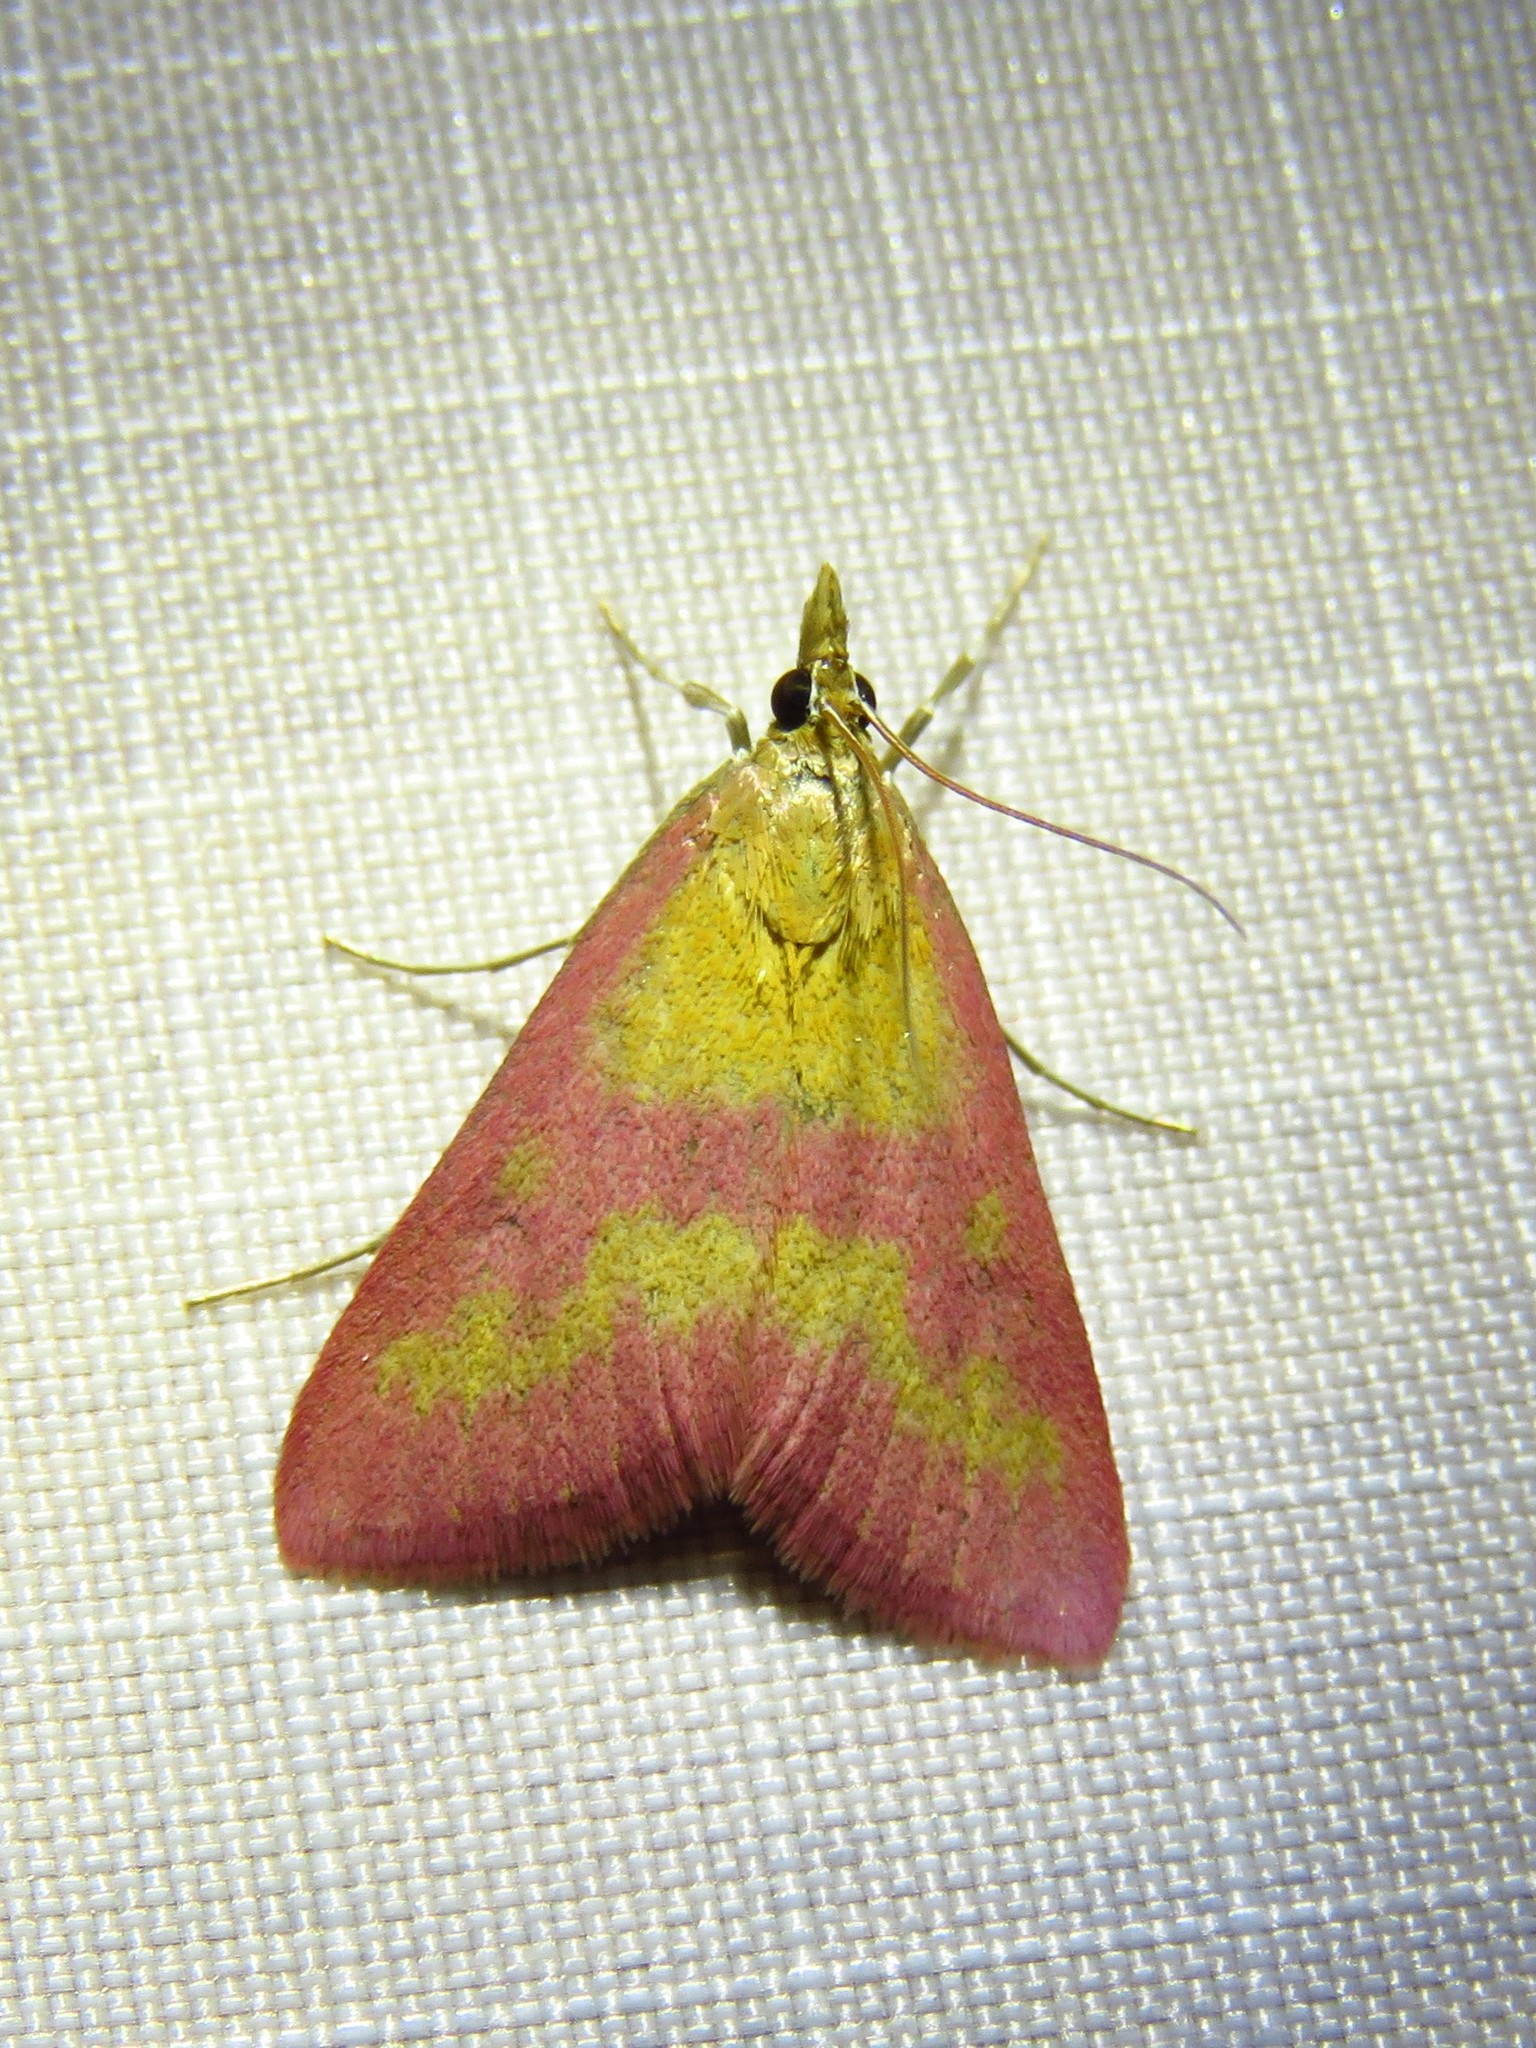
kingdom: Animalia
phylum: Arthropoda
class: Insecta
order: Lepidoptera
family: Crambidae
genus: Pyrausta
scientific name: Pyrausta laticlavia
